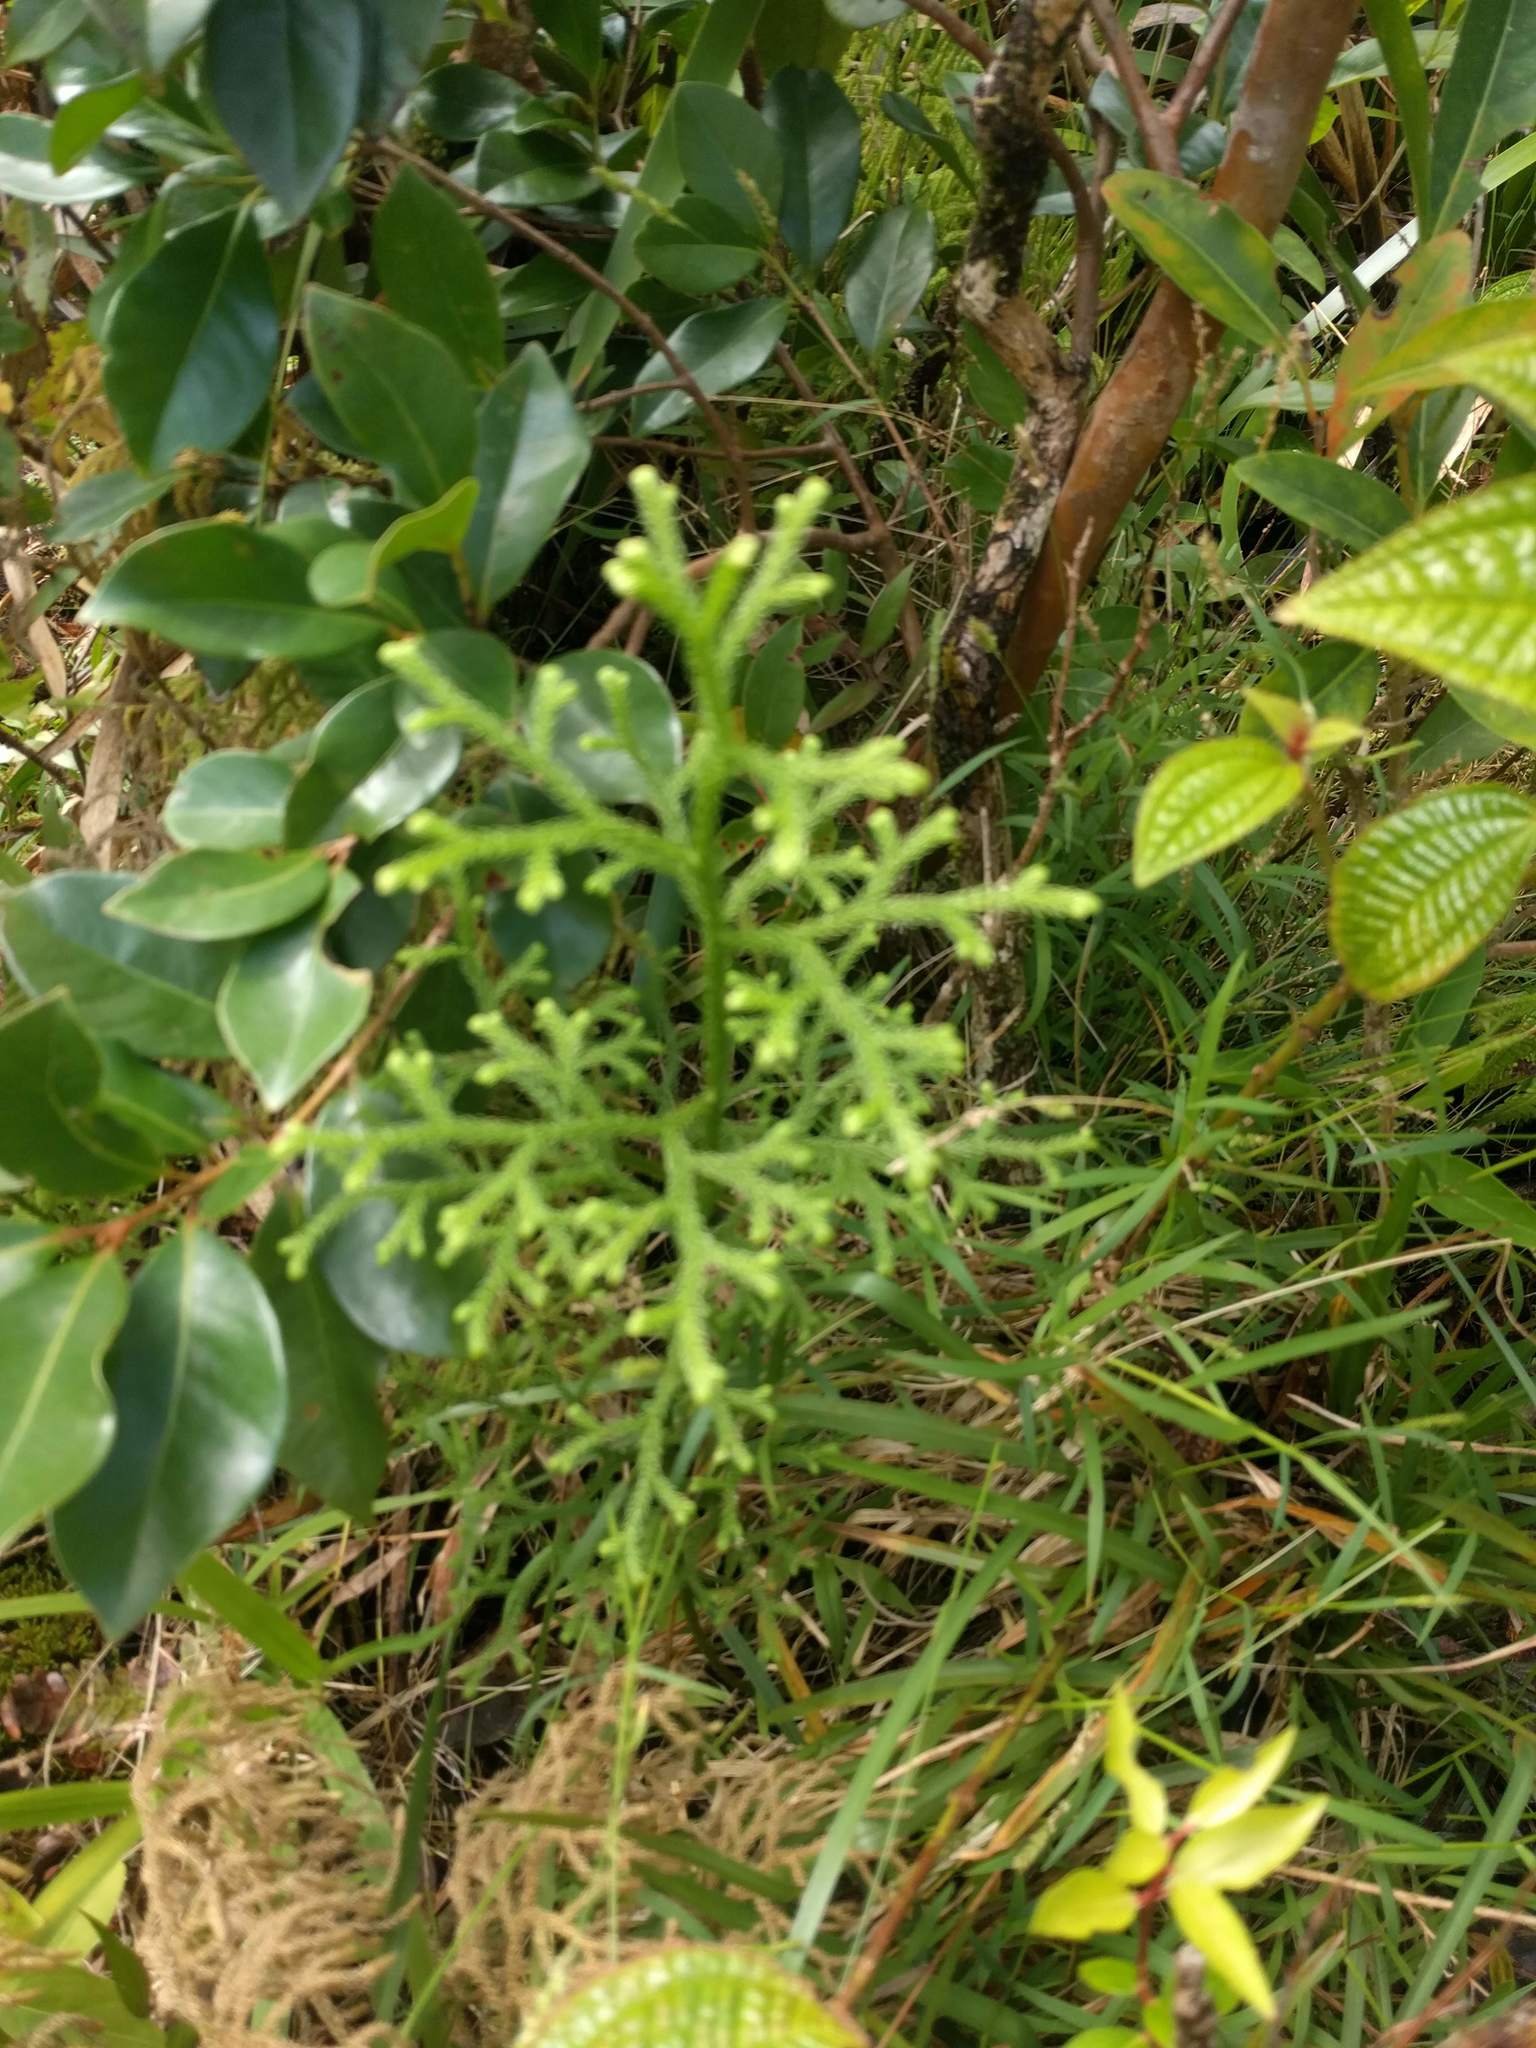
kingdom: Plantae
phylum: Tracheophyta
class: Lycopodiopsida
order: Lycopodiales
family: Lycopodiaceae
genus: Palhinhaea
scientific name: Palhinhaea cernua
